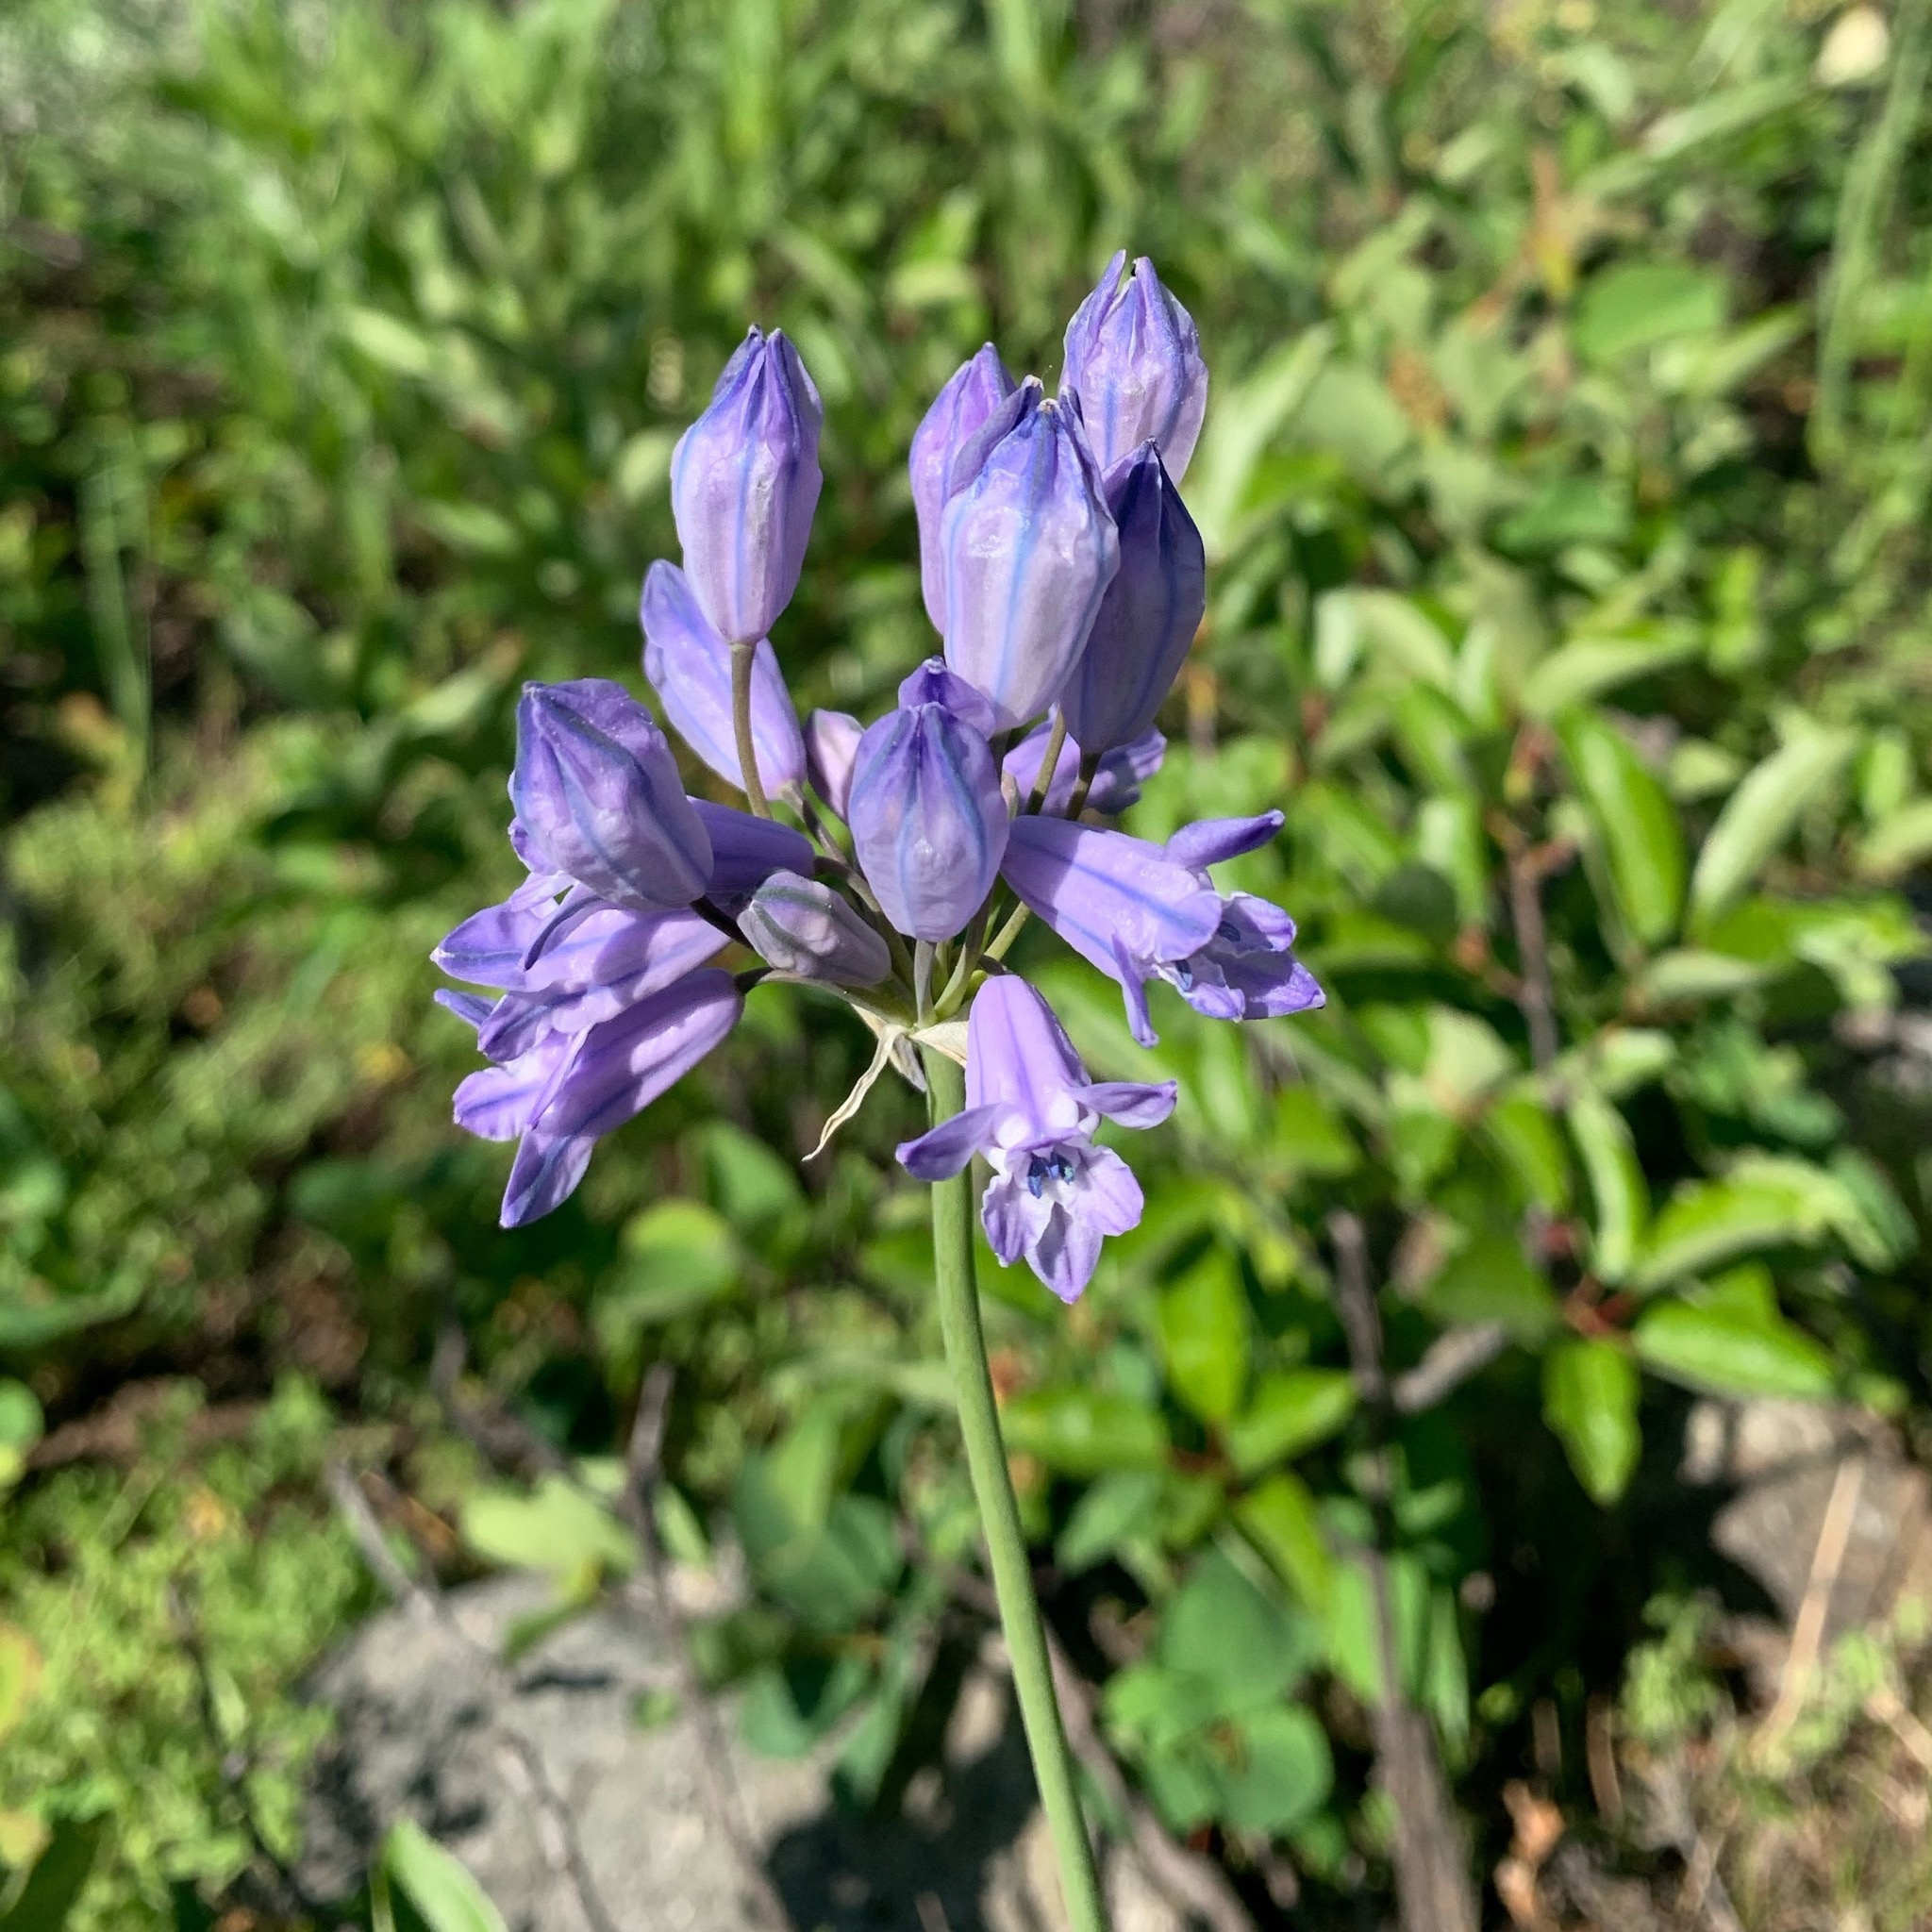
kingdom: Plantae
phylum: Tracheophyta
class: Liliopsida
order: Asparagales
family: Asparagaceae
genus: Triteleia
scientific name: Triteleia grandiflora
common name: Wild hyacinth
